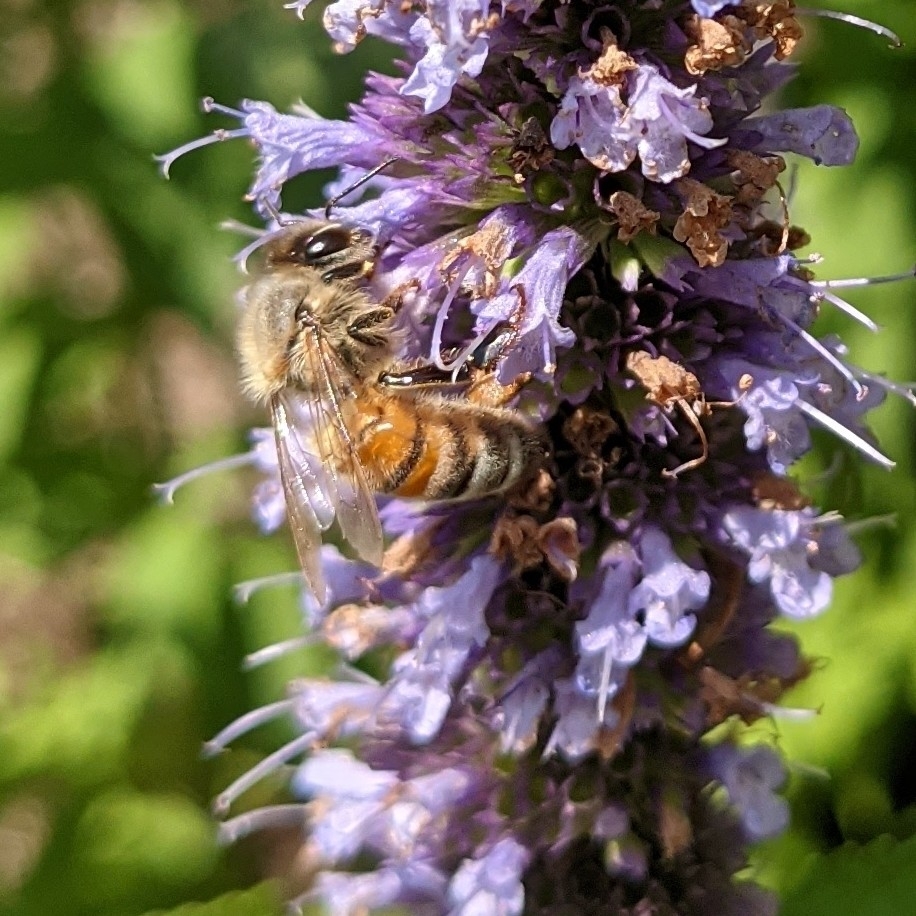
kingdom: Animalia
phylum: Arthropoda
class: Insecta
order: Hymenoptera
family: Apidae
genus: Apis
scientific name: Apis mellifera
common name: Honey bee
